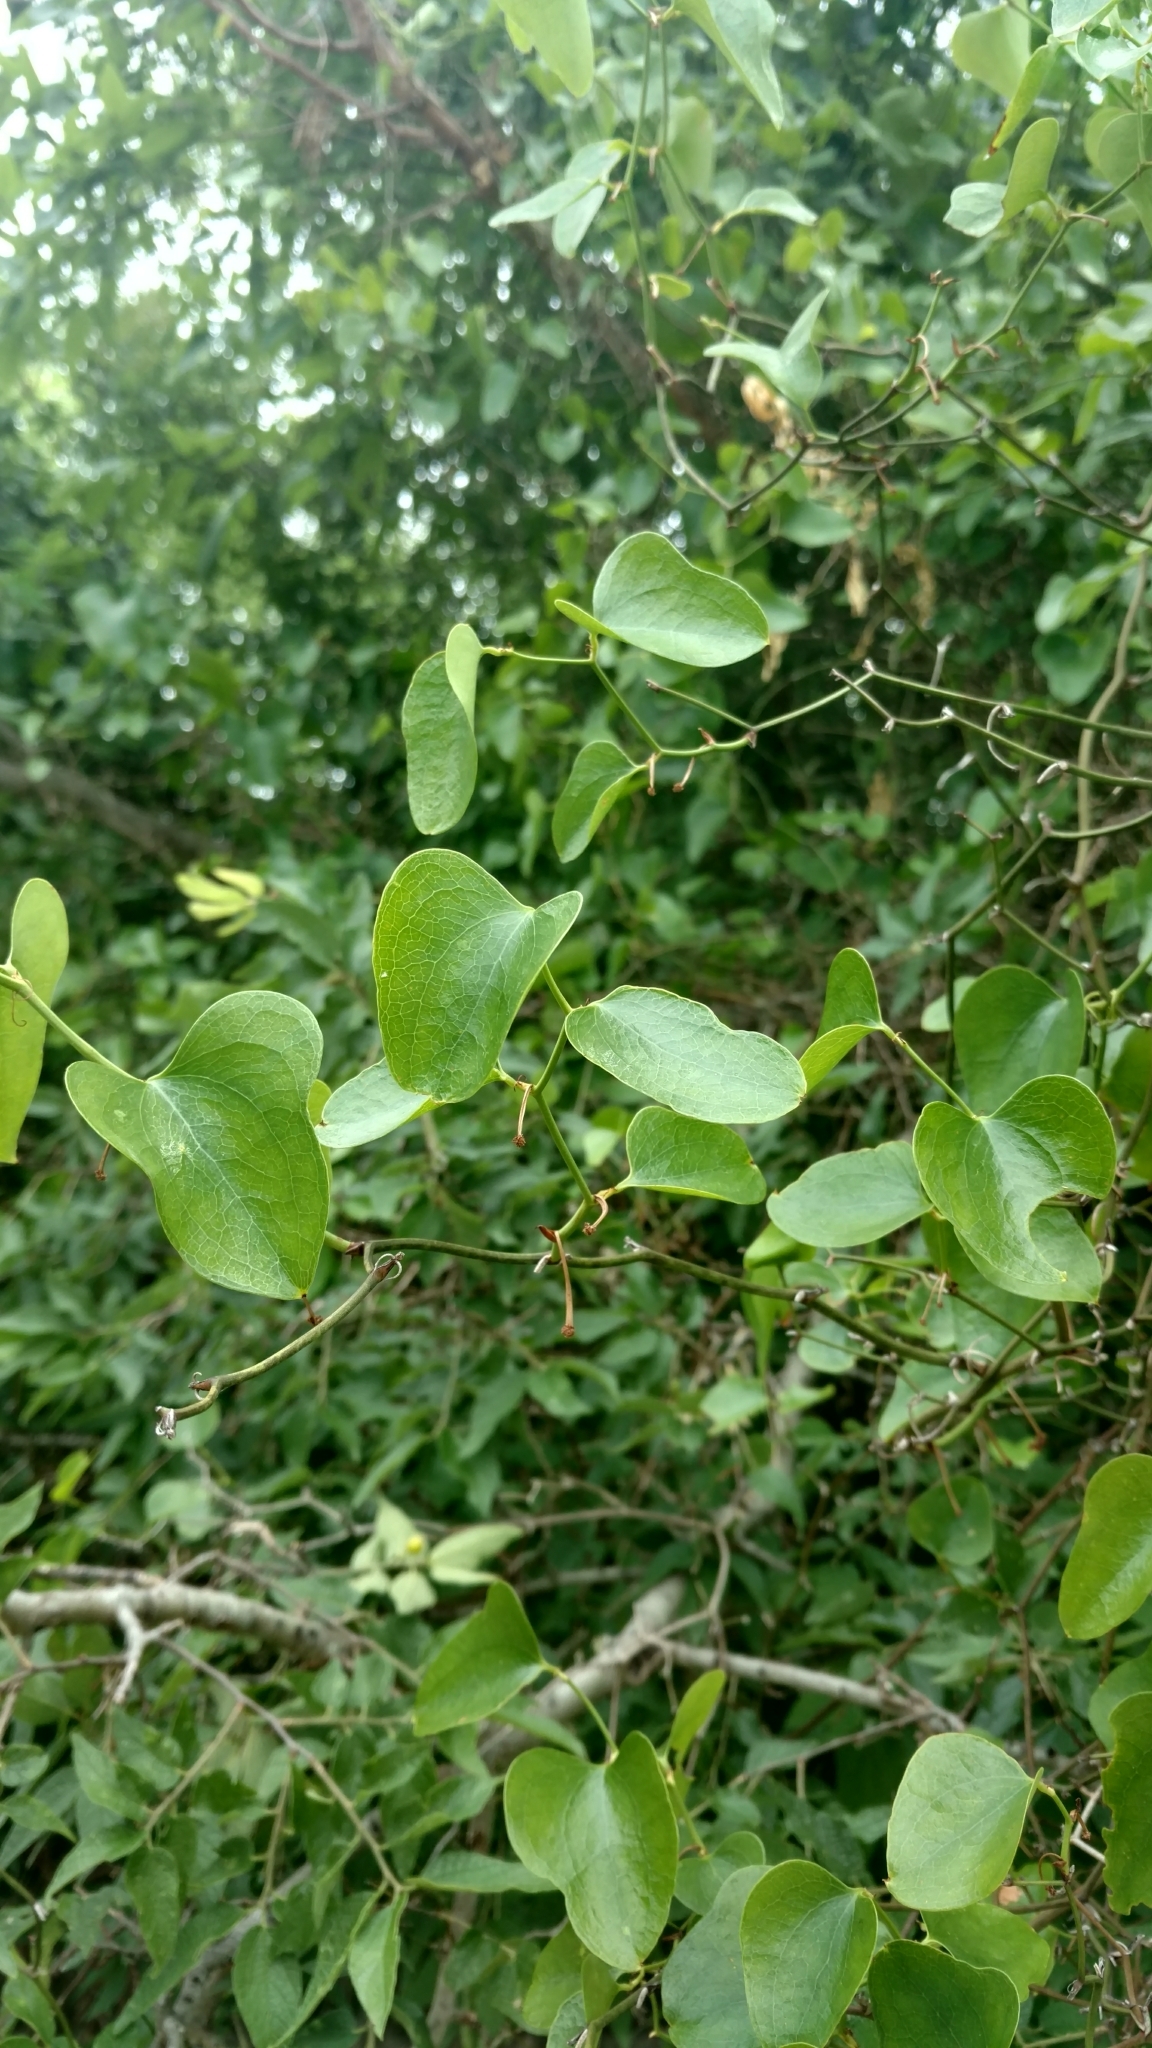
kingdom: Plantae
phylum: Tracheophyta
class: Liliopsida
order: Liliales
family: Smilacaceae
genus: Smilax
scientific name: Smilax bona-nox
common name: Catbrier
